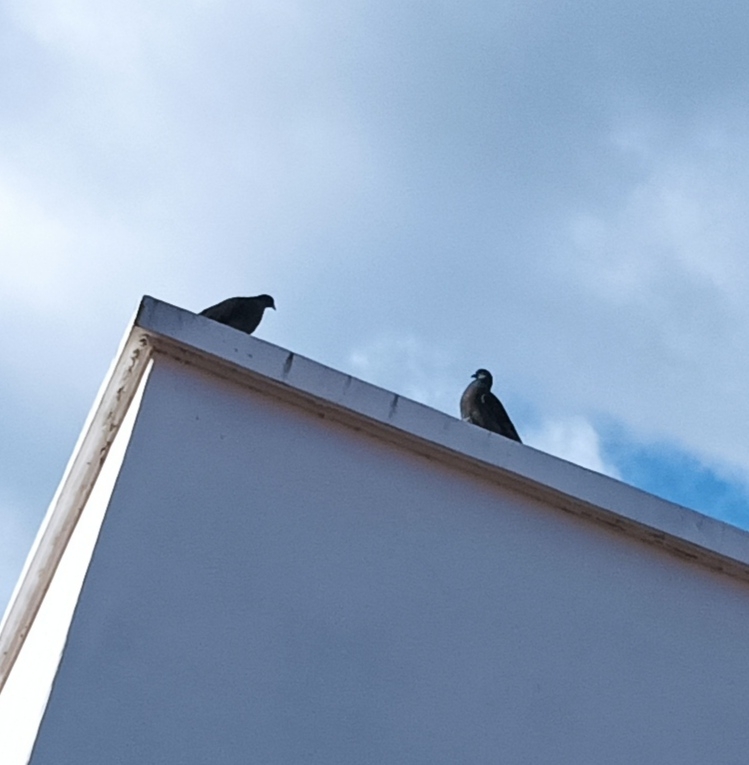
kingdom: Animalia
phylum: Chordata
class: Aves
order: Columbiformes
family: Columbidae
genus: Columba
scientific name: Columba livia
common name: Rock pigeon
